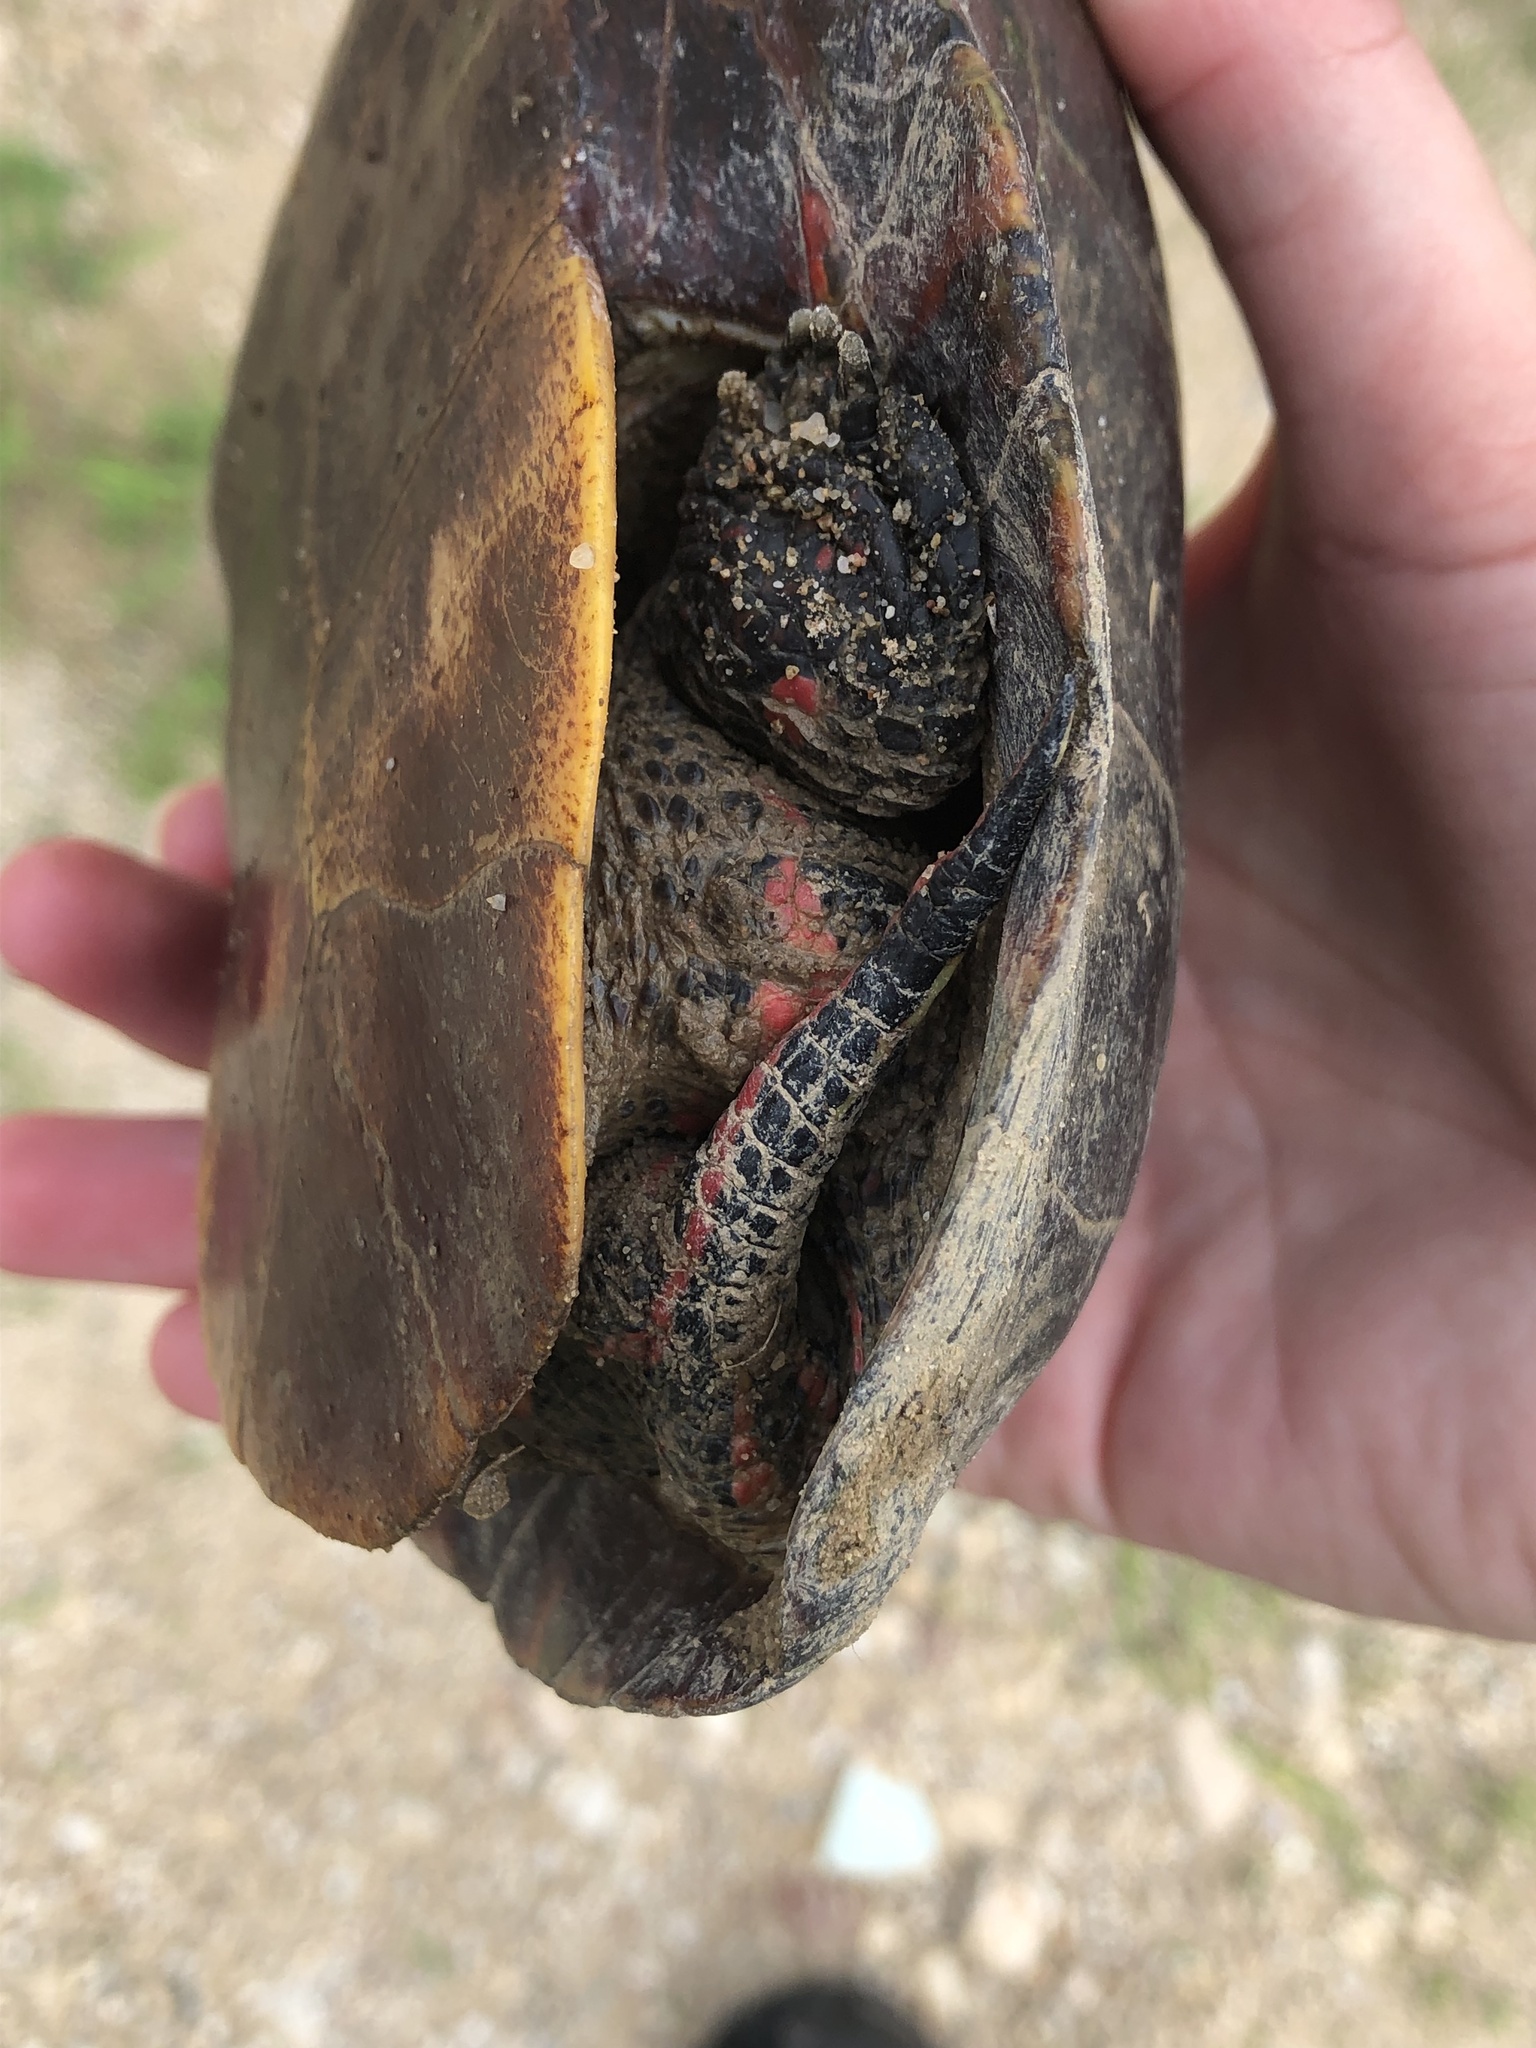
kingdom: Animalia
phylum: Chordata
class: Testudines
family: Emydidae
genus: Chrysemys
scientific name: Chrysemys picta
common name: Painted turtle
